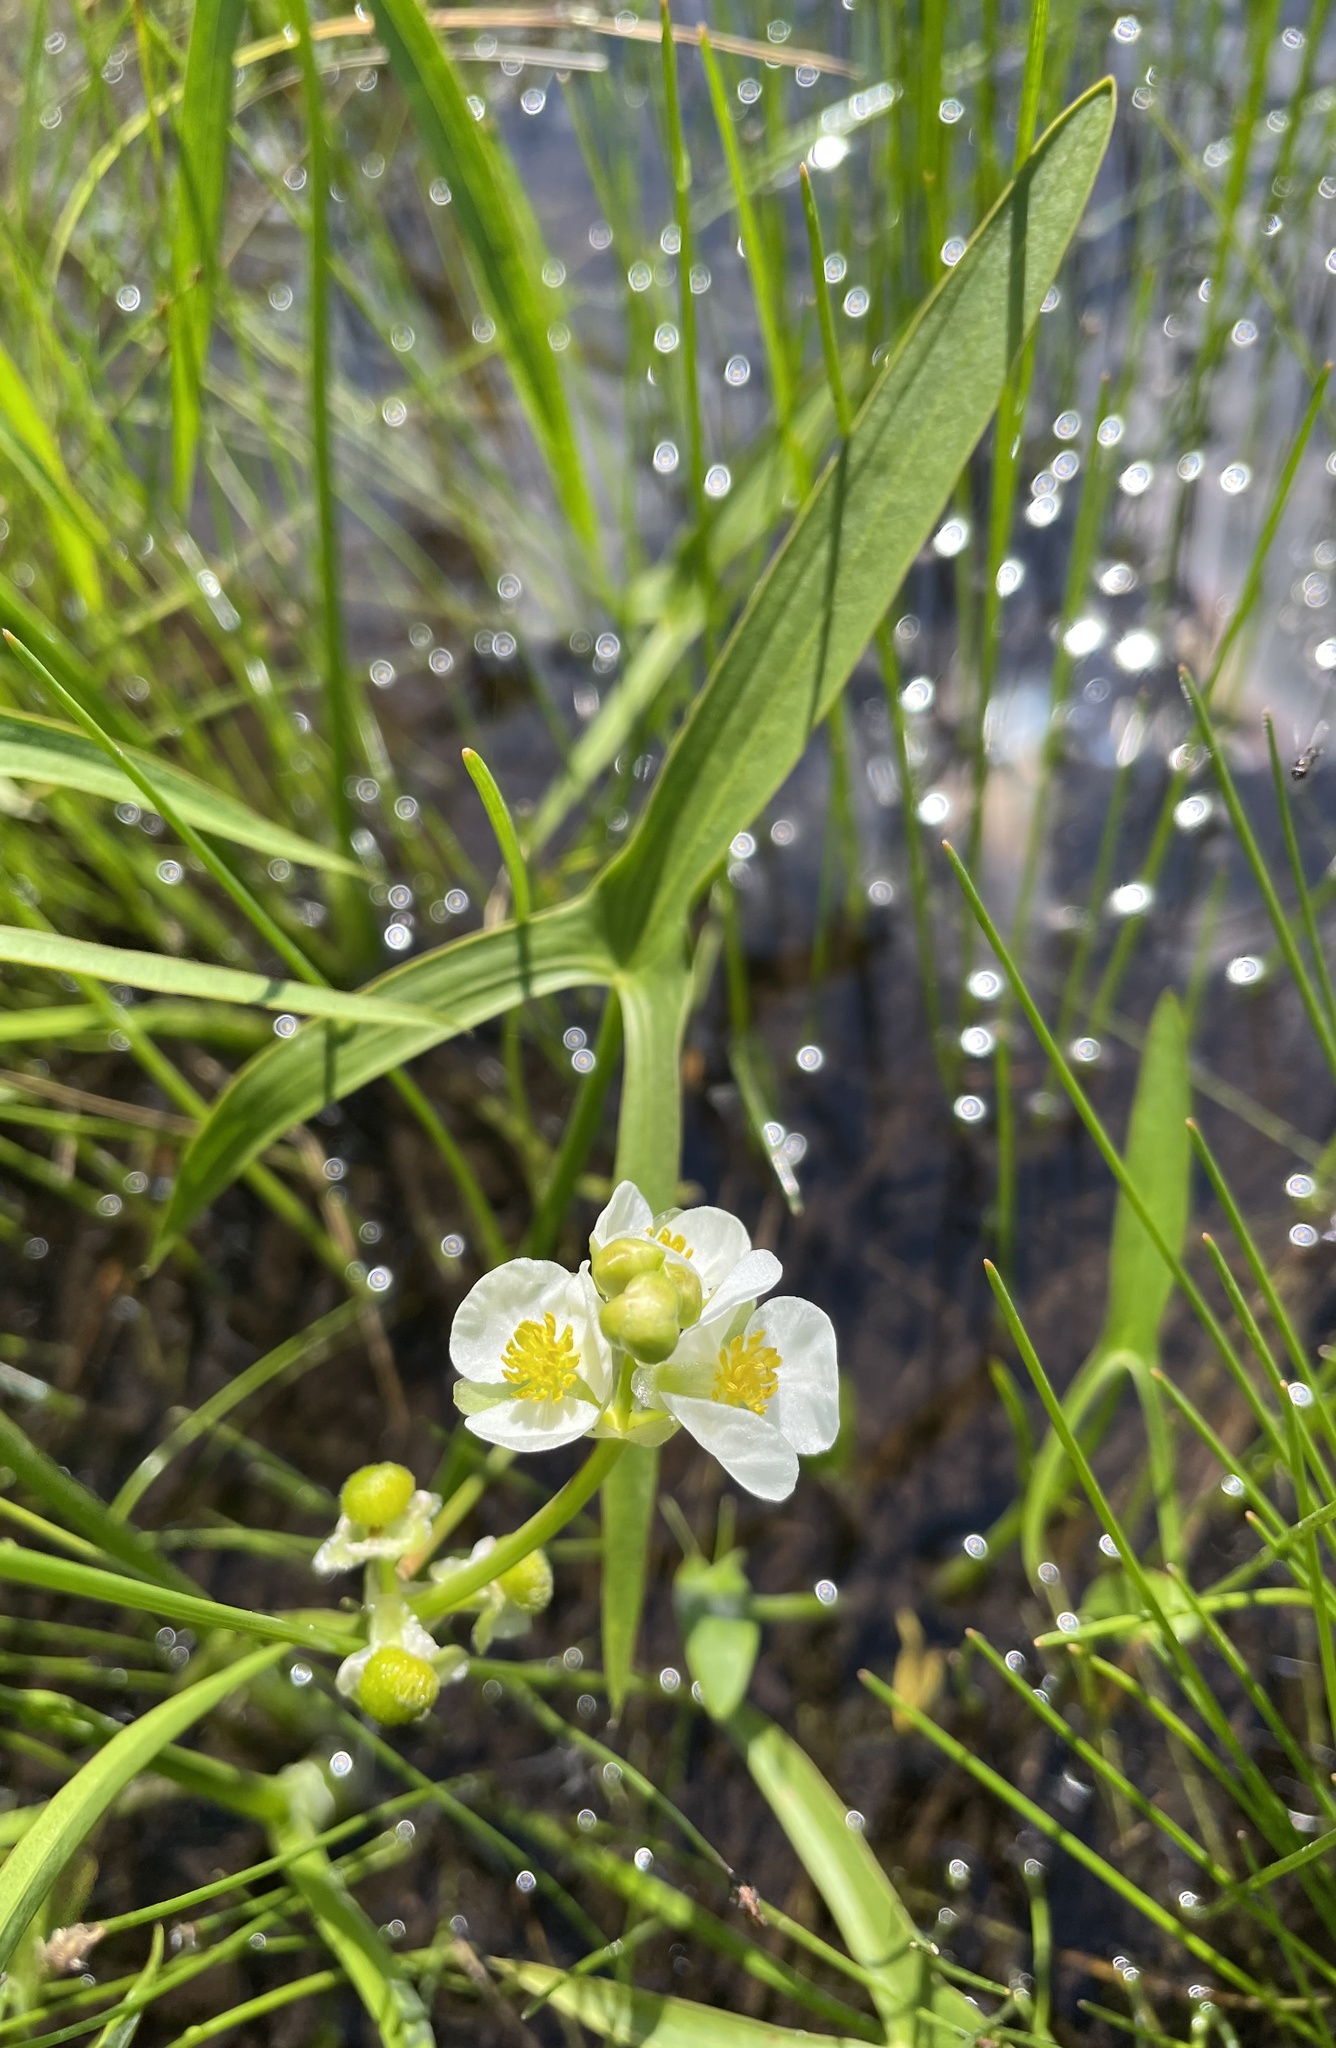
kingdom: Plantae
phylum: Tracheophyta
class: Liliopsida
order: Alismatales
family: Alismataceae
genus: Sagittaria
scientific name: Sagittaria latifolia
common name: Duck-potato
